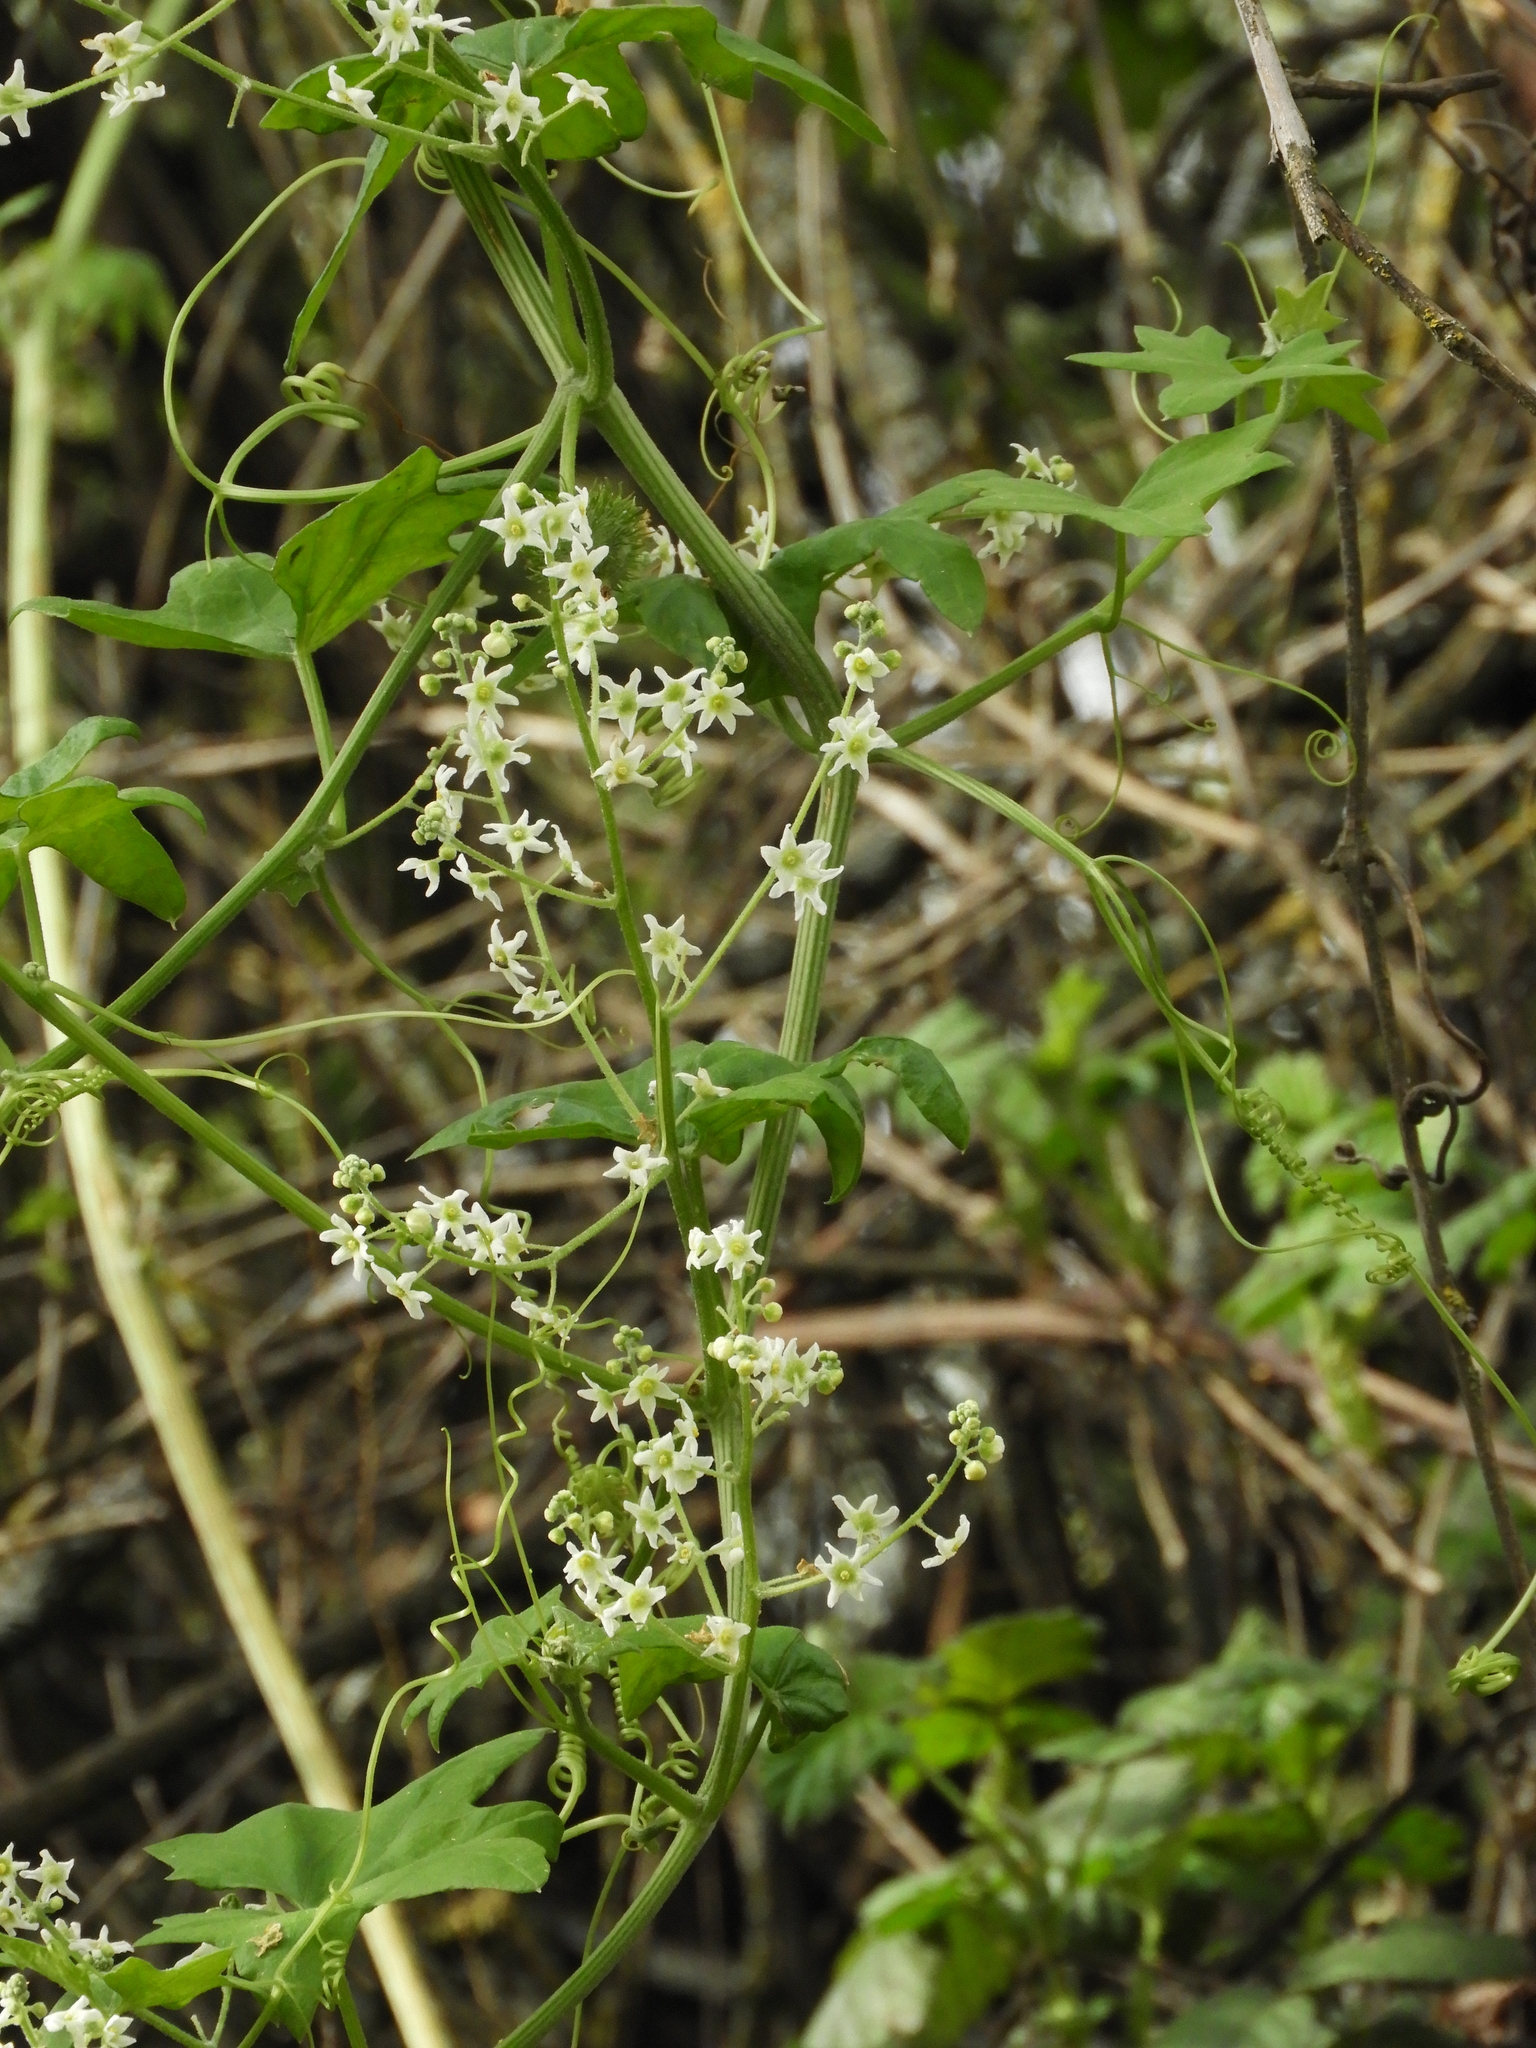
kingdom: Plantae
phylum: Tracheophyta
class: Magnoliopsida
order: Cucurbitales
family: Cucurbitaceae
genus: Marah
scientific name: Marah fabacea
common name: California manroot
